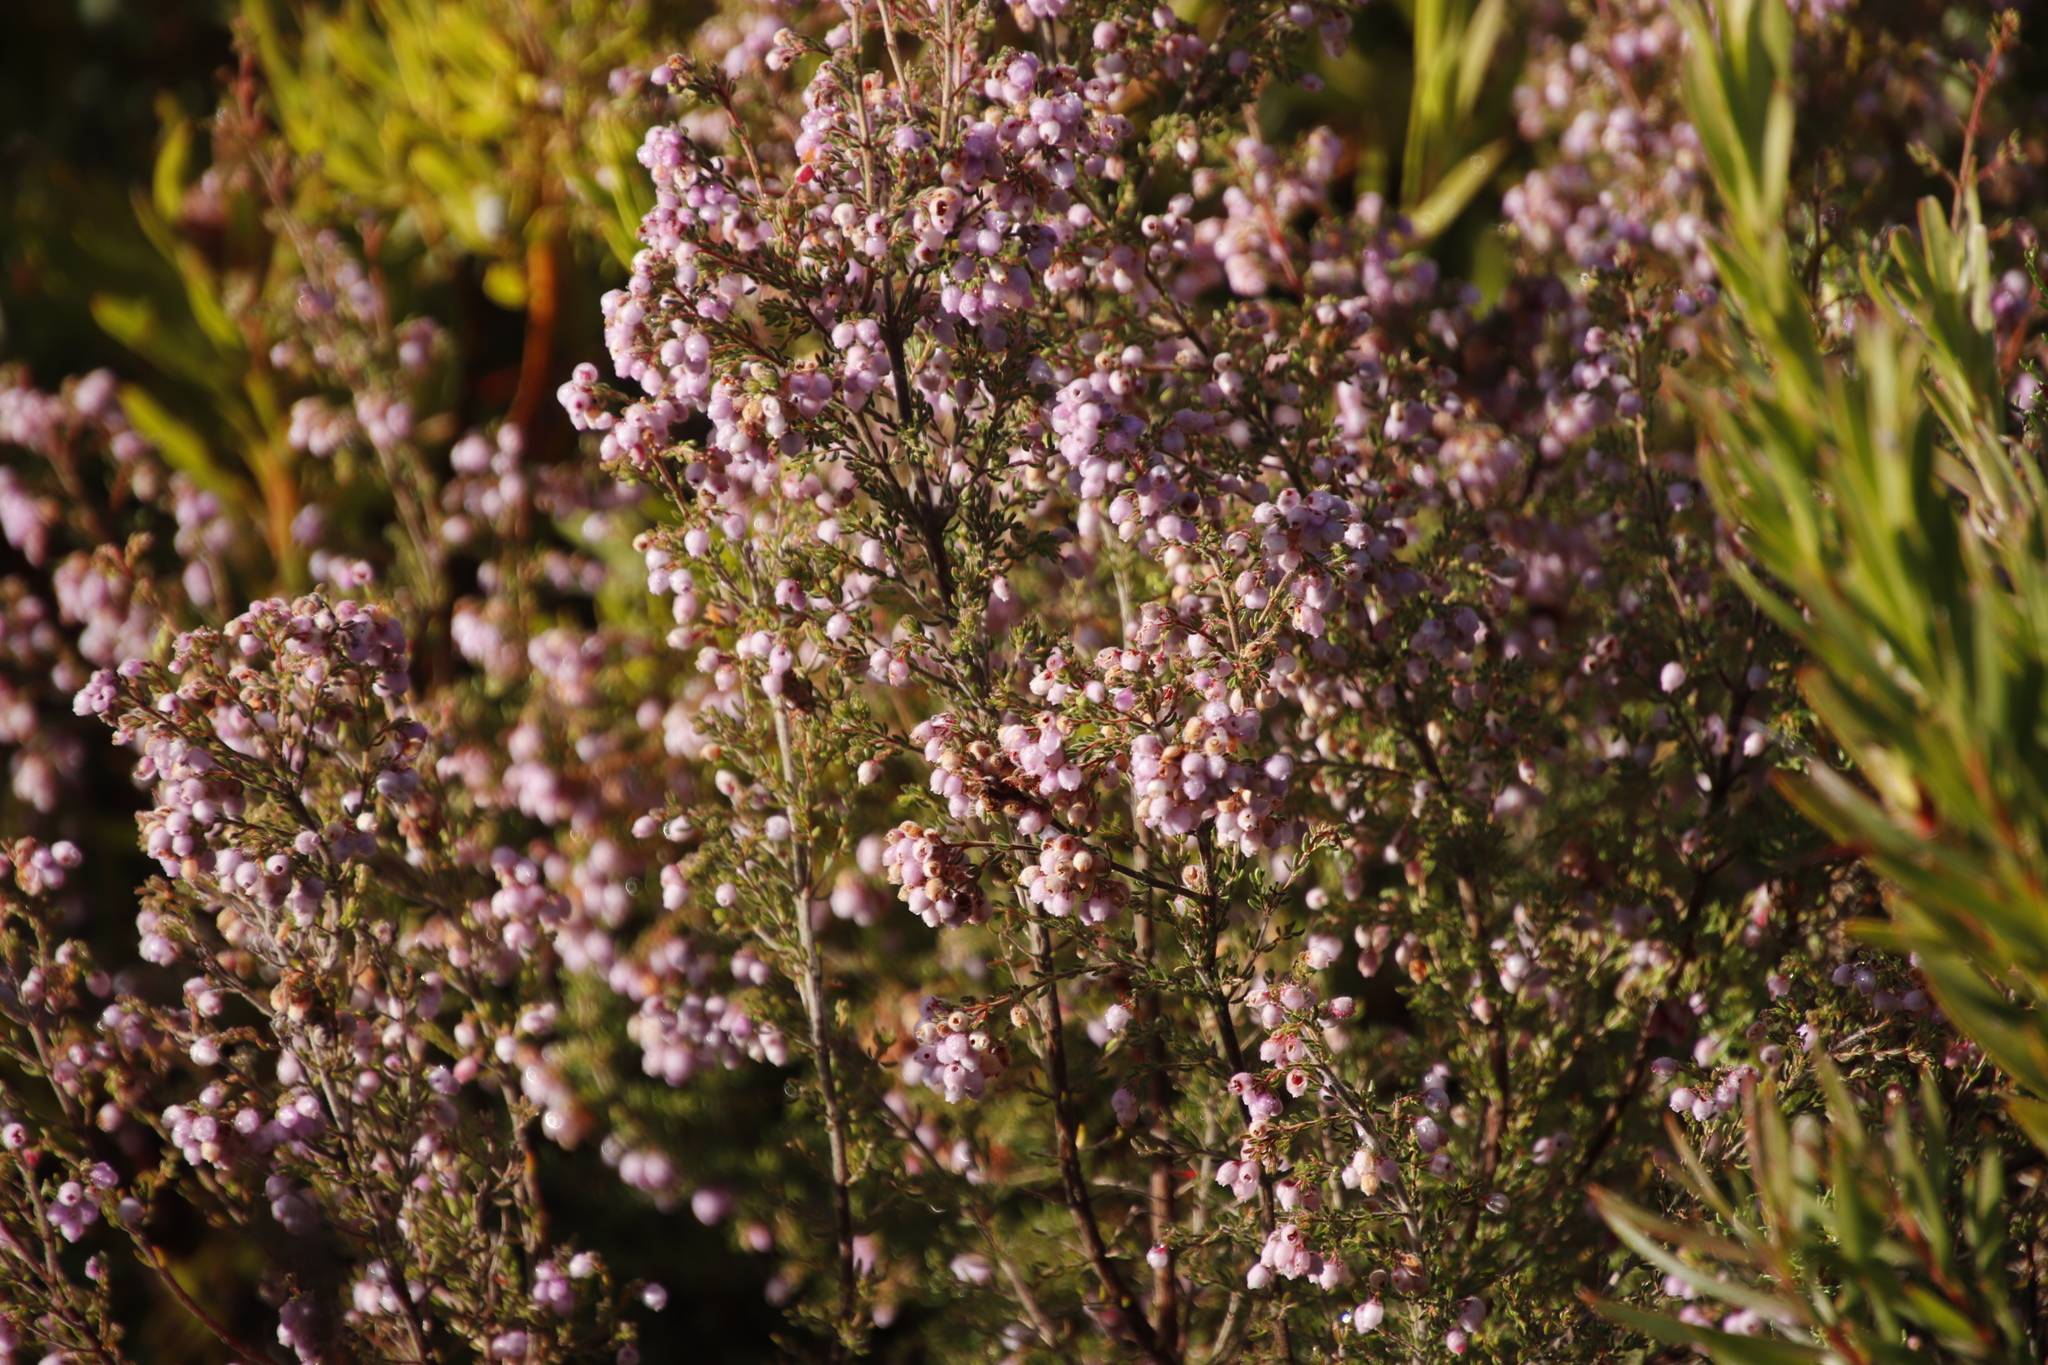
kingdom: Plantae
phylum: Tracheophyta
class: Magnoliopsida
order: Ericales
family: Ericaceae
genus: Erica
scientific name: Erica hirtiflora
